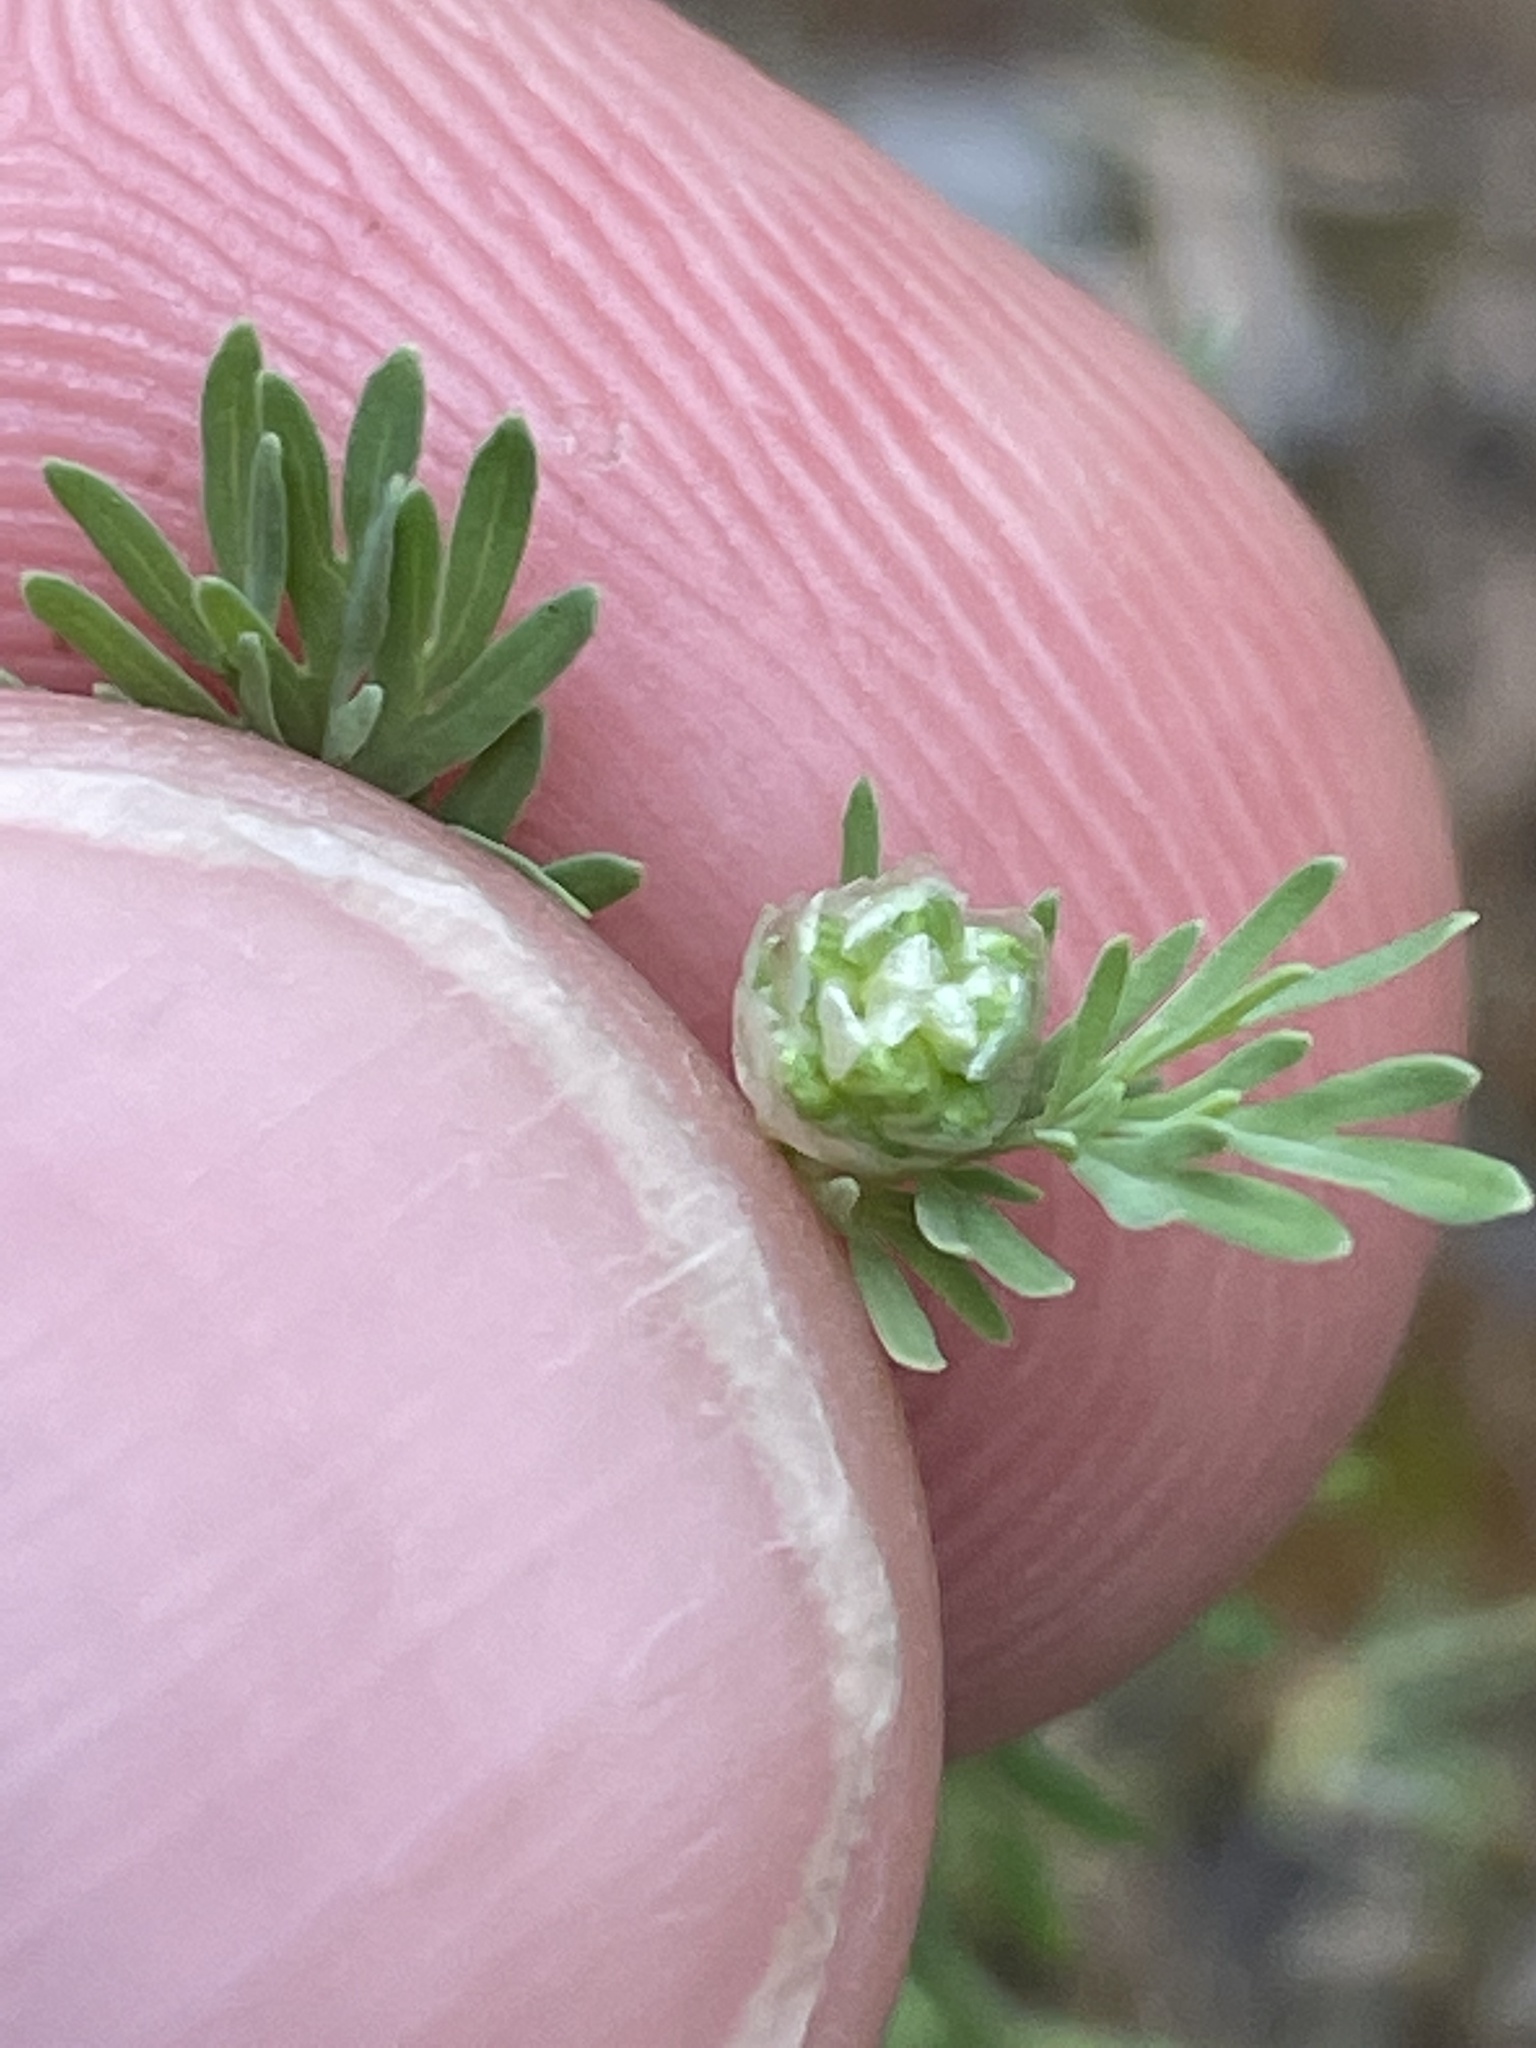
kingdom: Plantae
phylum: Tracheophyta
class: Magnoliopsida
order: Rosales
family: Rosaceae
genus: Poteridium
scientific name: Poteridium annuum
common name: Annual burnet
